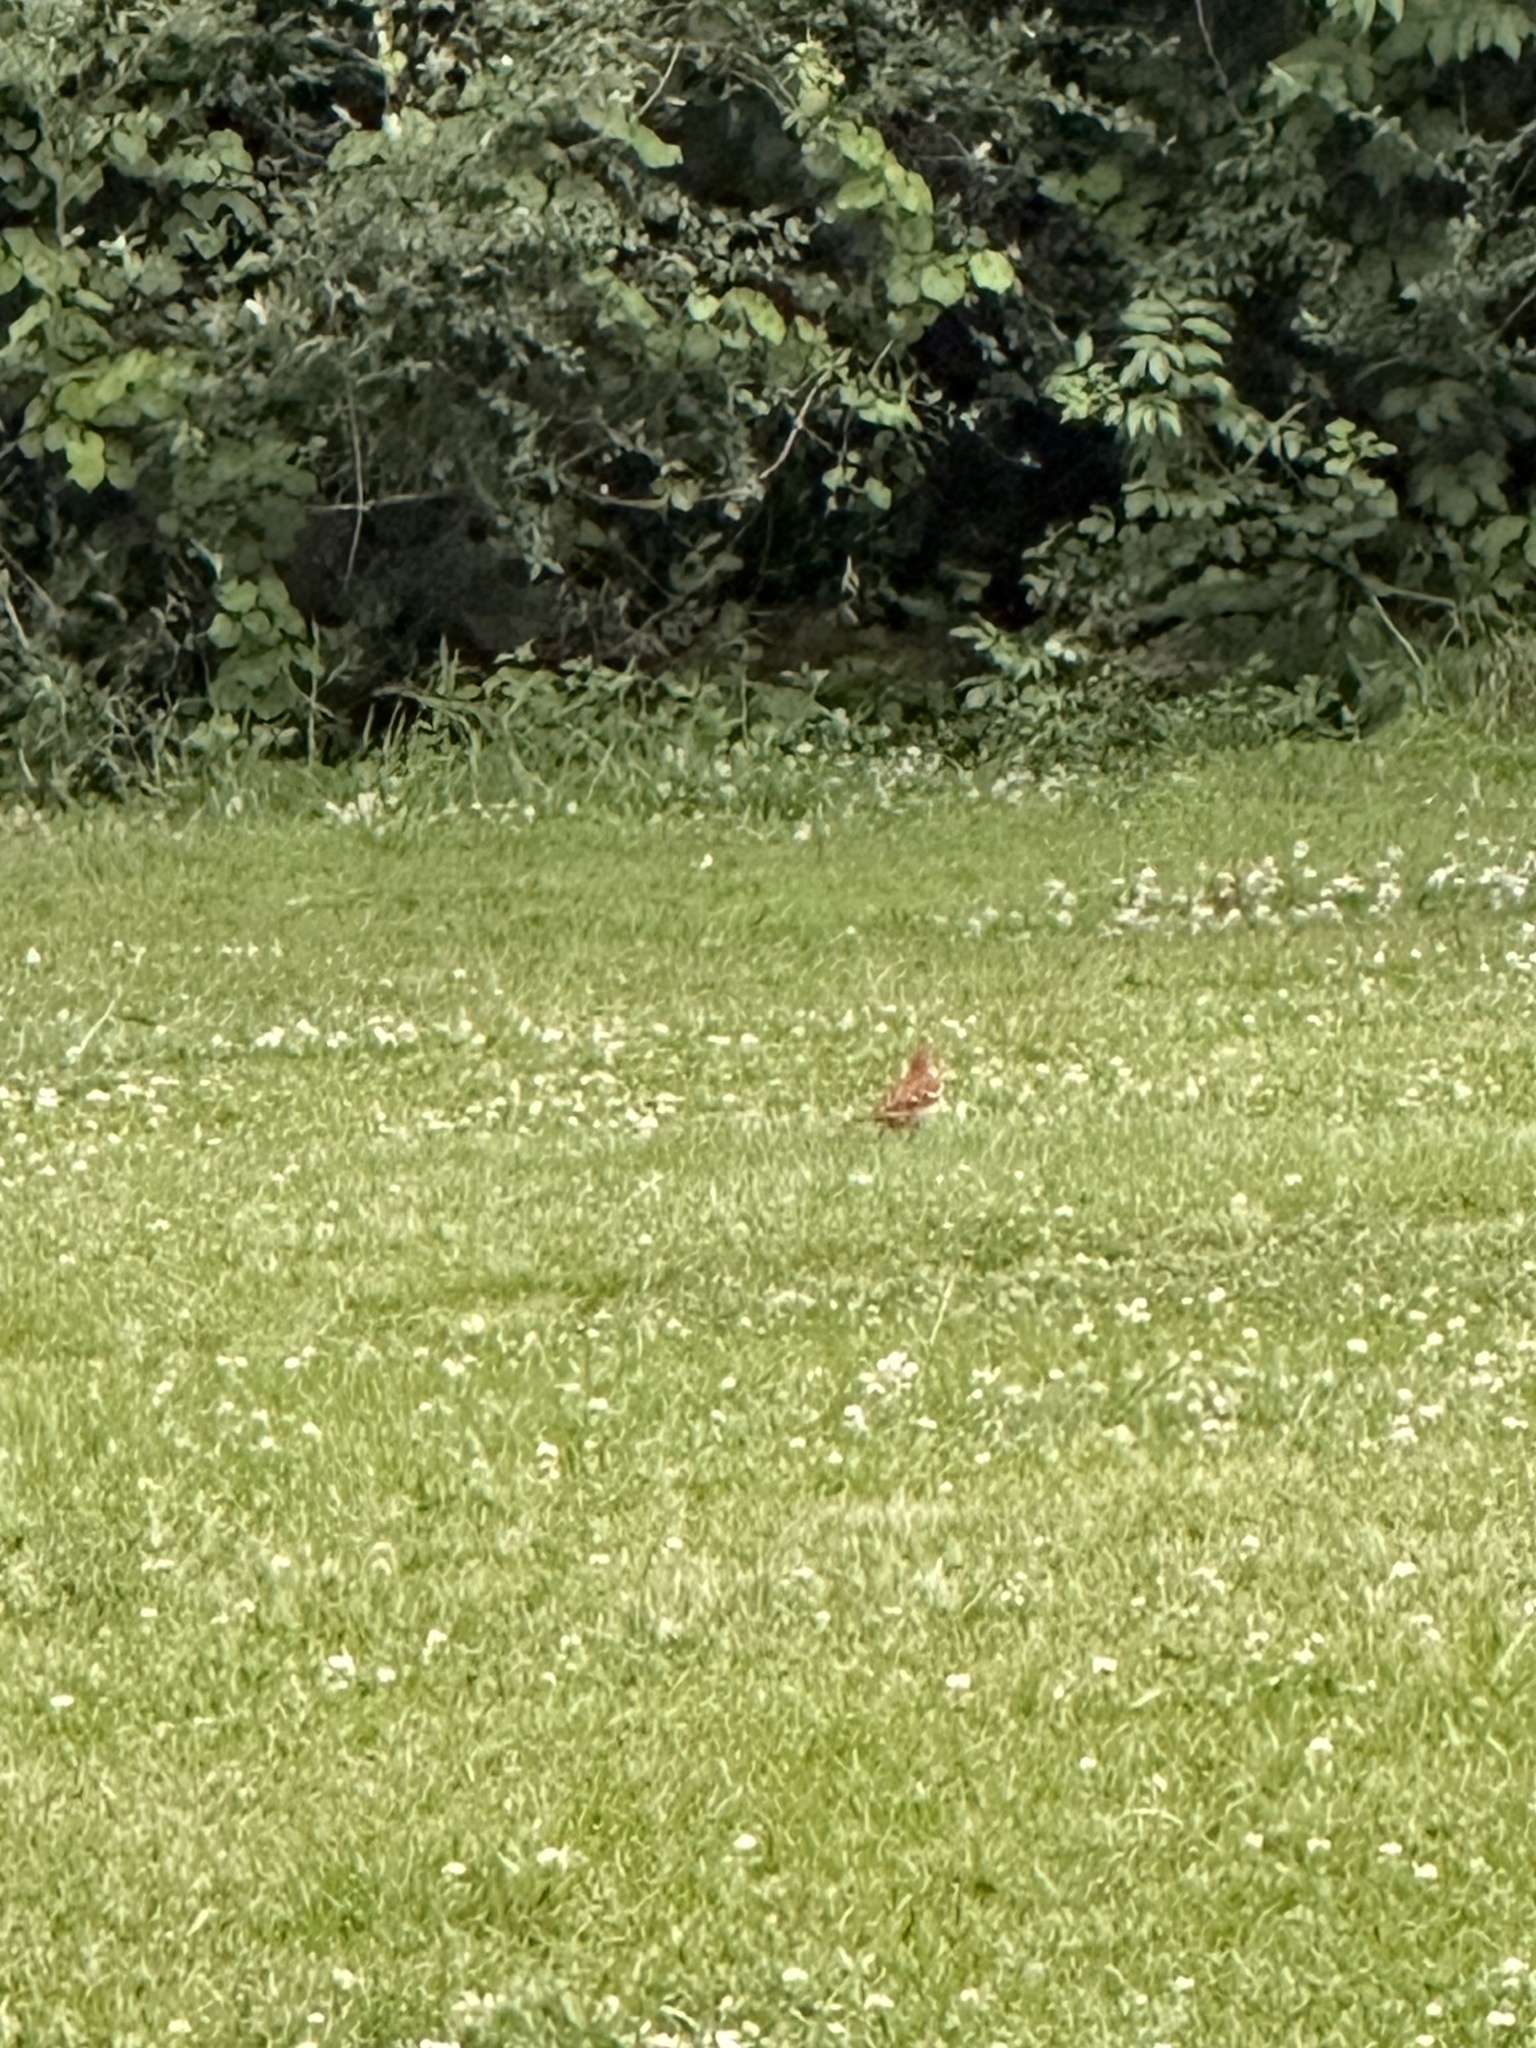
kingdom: Animalia
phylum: Chordata
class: Aves
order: Passeriformes
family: Mimidae
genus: Toxostoma
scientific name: Toxostoma rufum
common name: Brown thrasher
